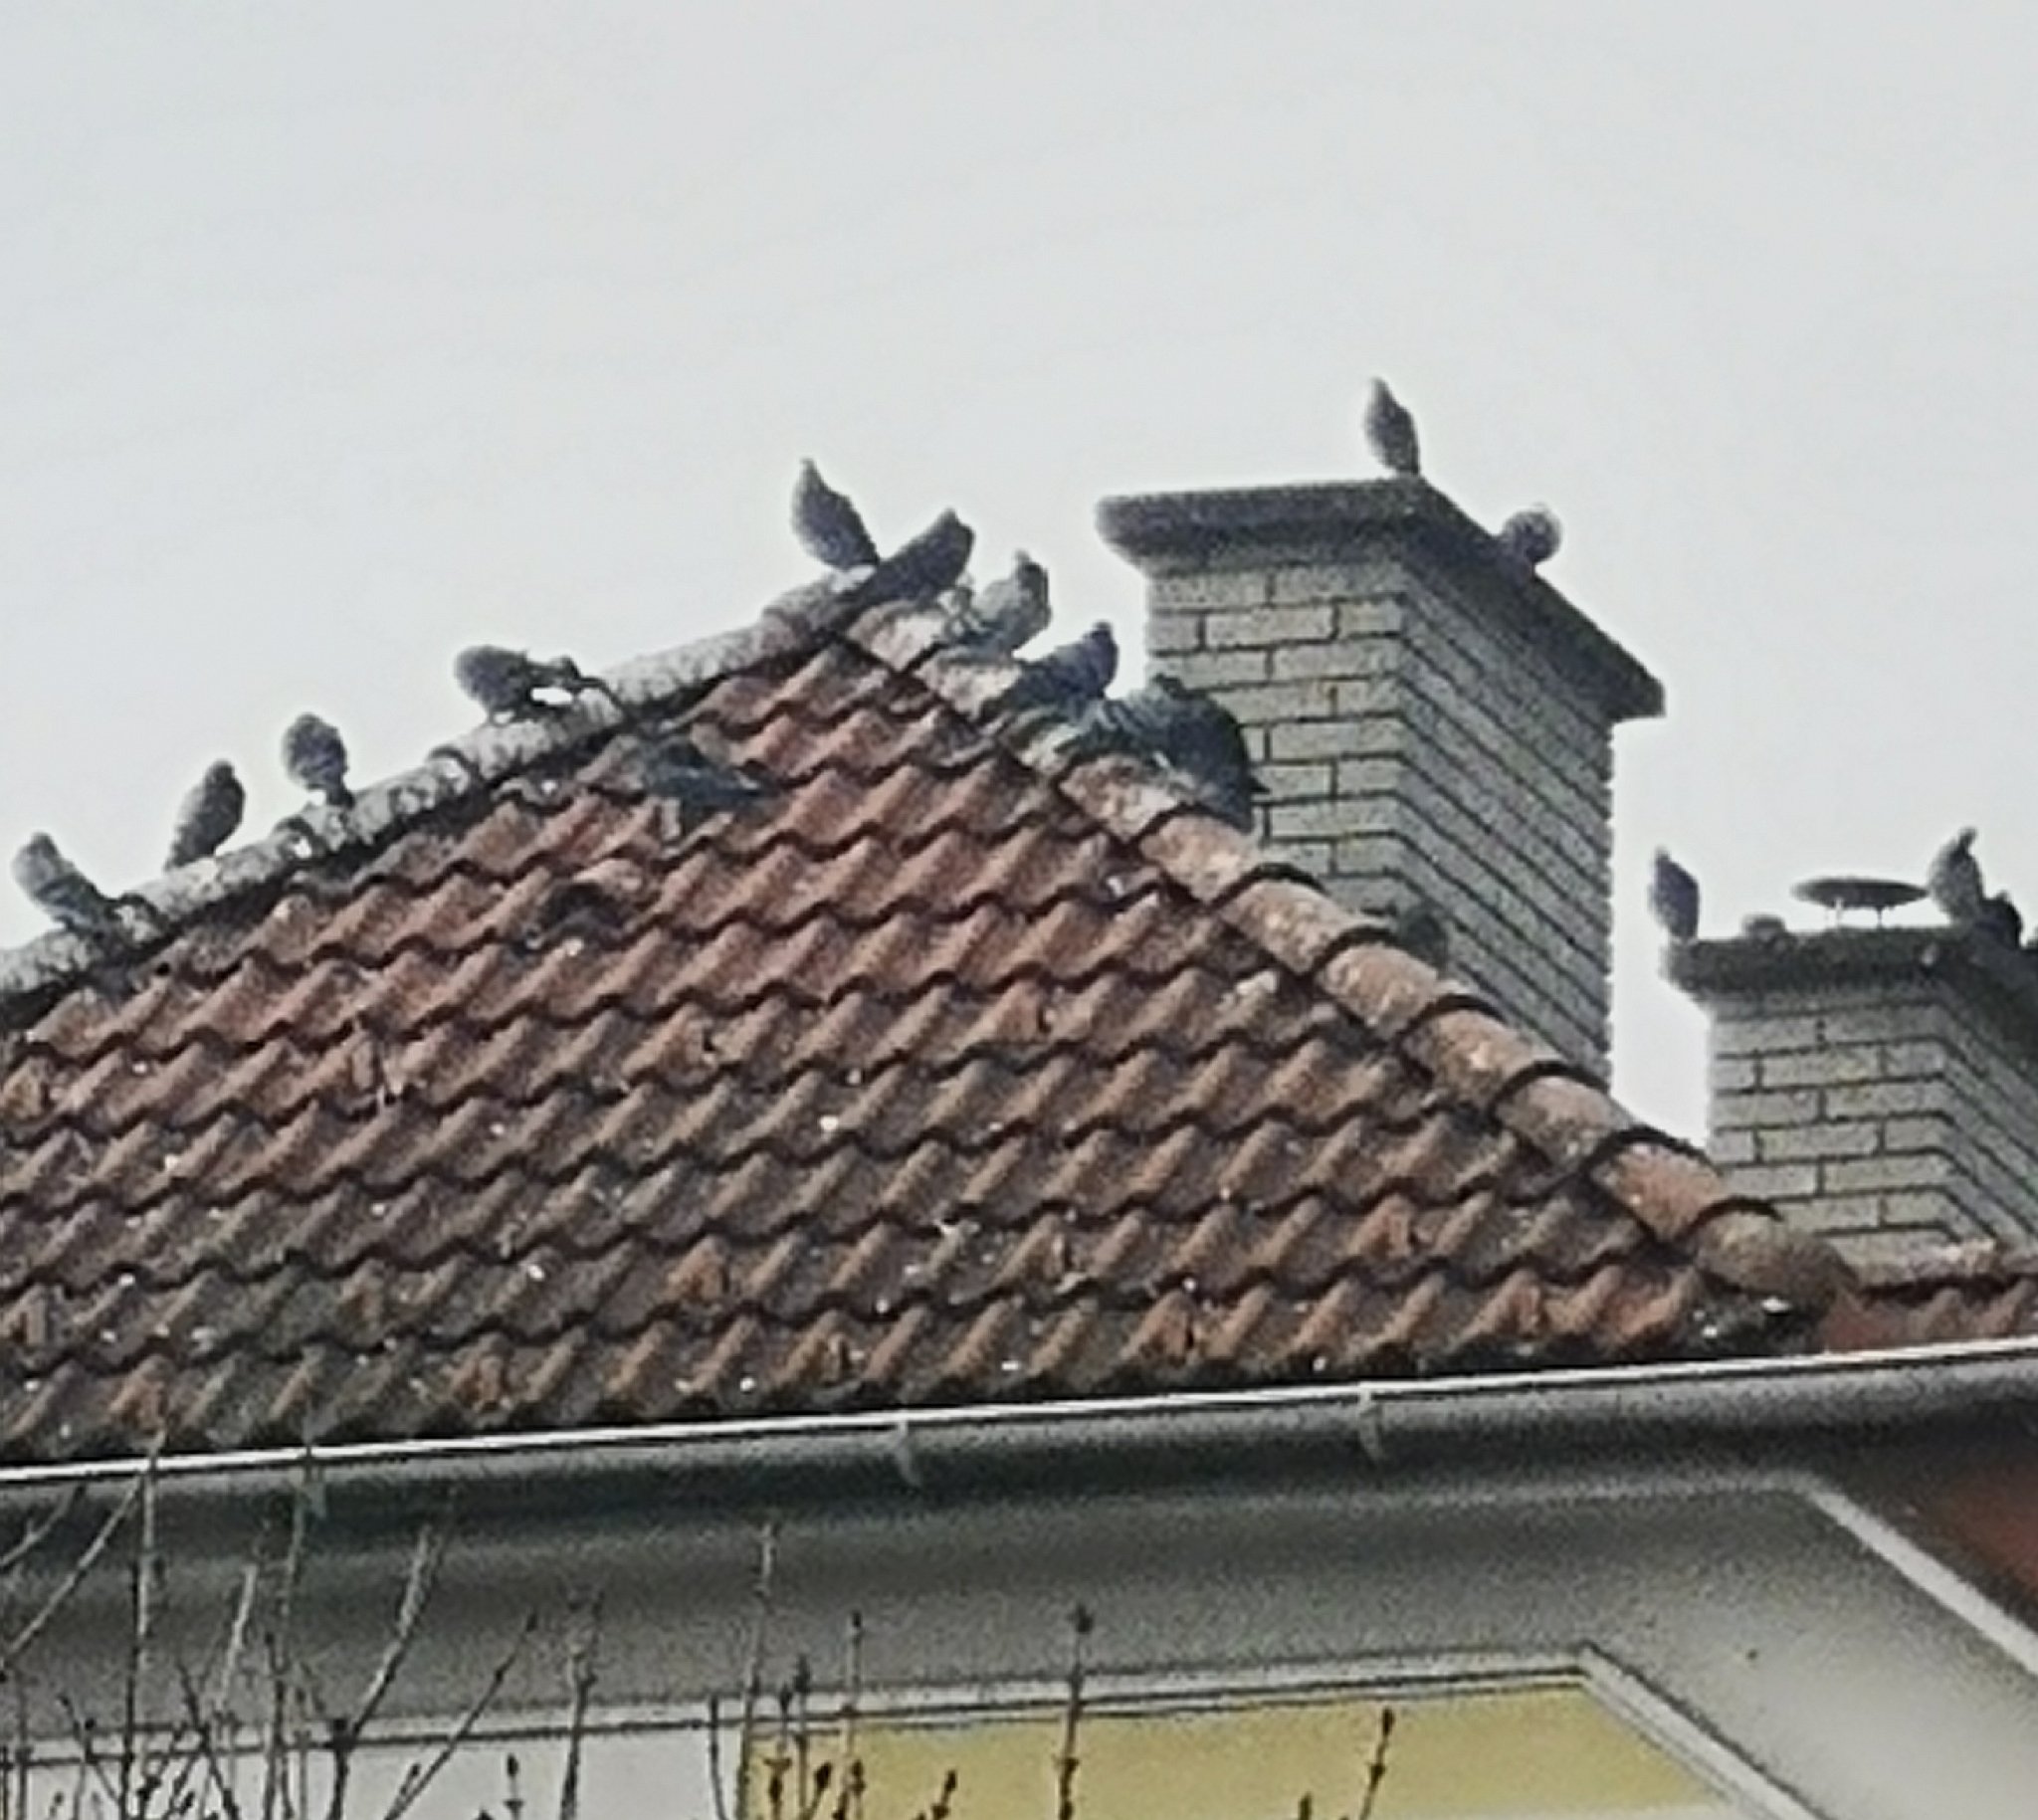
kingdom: Animalia
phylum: Chordata
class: Aves
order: Columbiformes
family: Columbidae
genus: Columba
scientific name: Columba livia
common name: Rock pigeon
